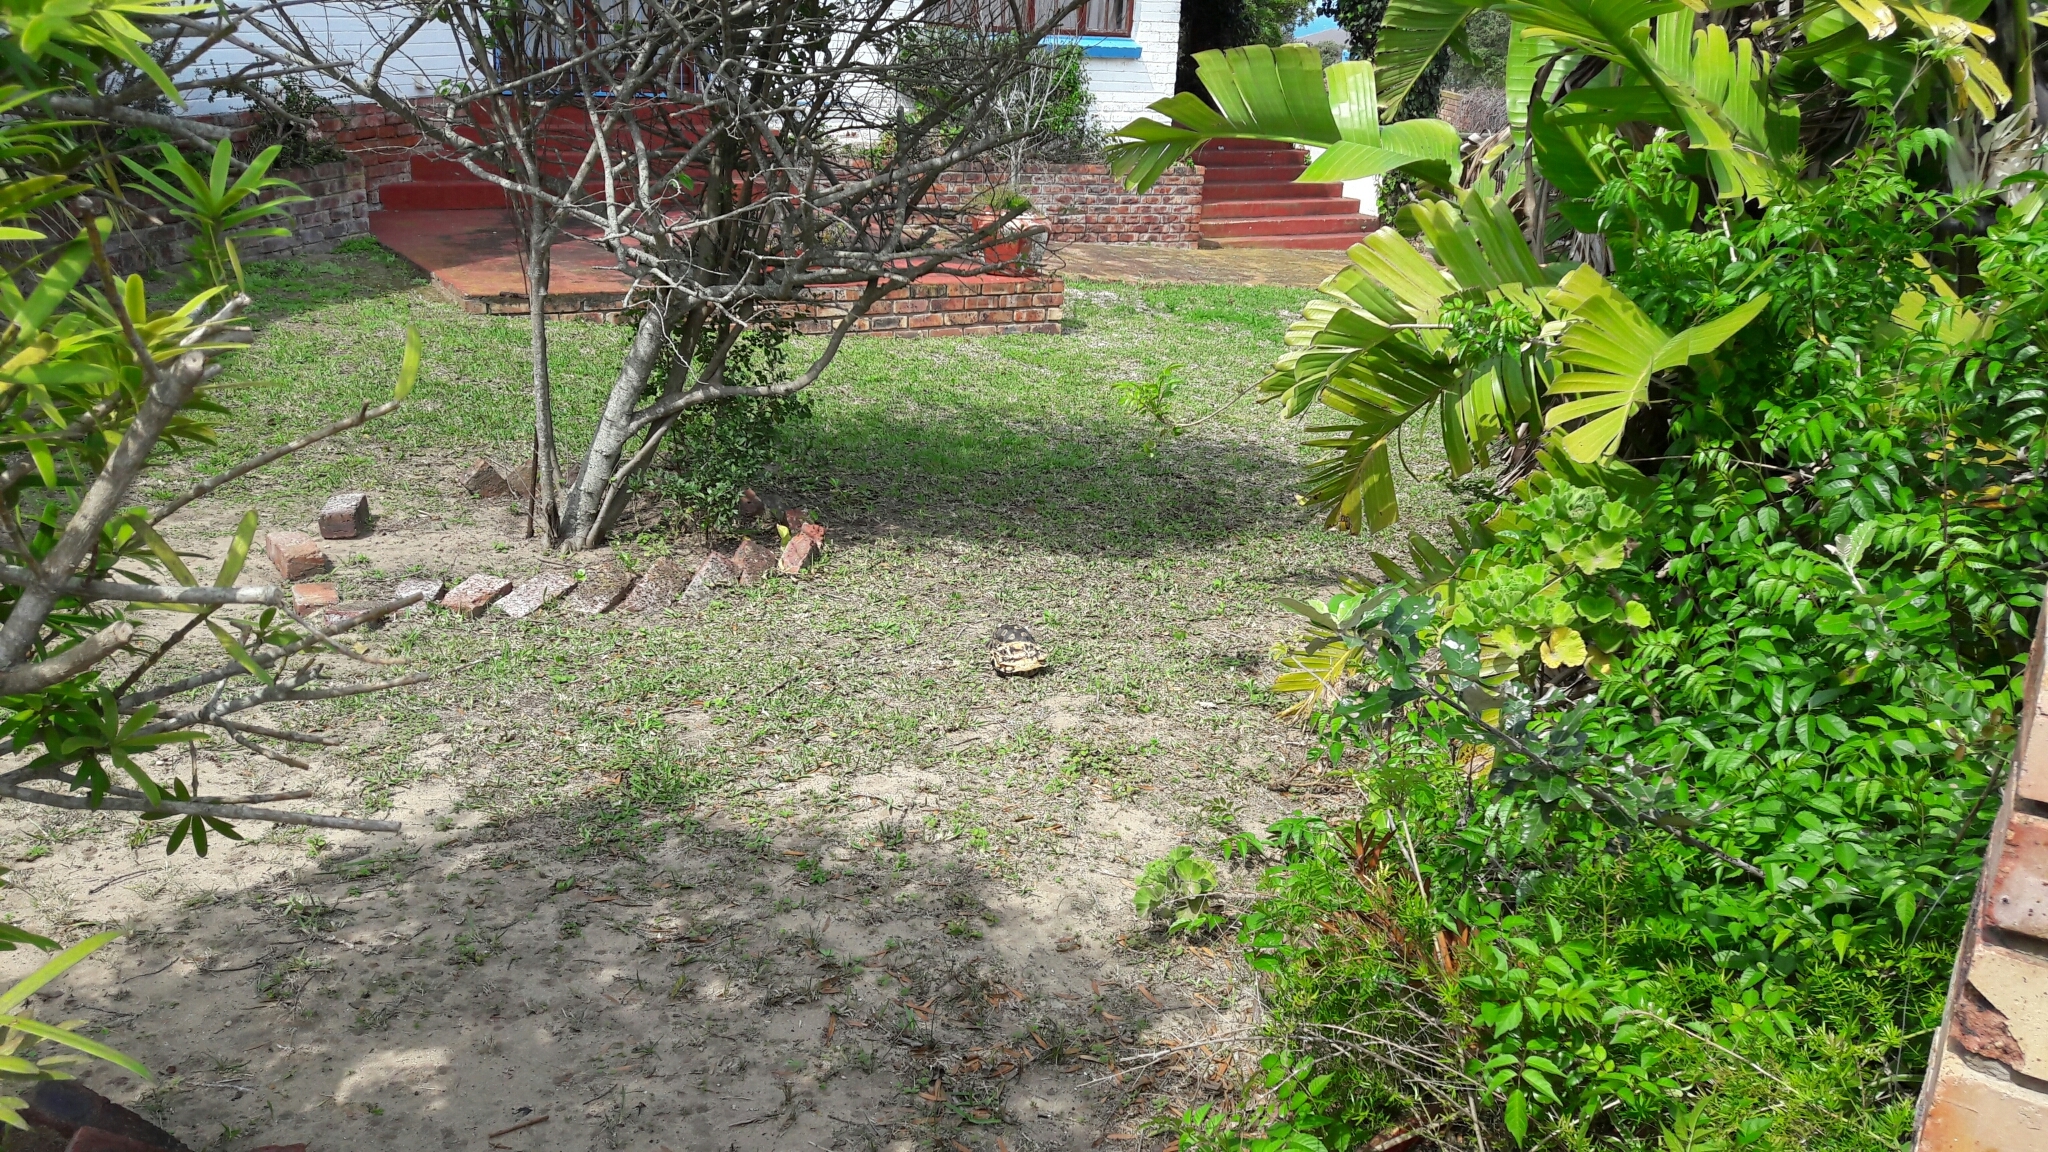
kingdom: Animalia
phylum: Chordata
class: Testudines
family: Testudinidae
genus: Chersina
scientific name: Chersina angulata
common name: South african bowsprit tortoise
